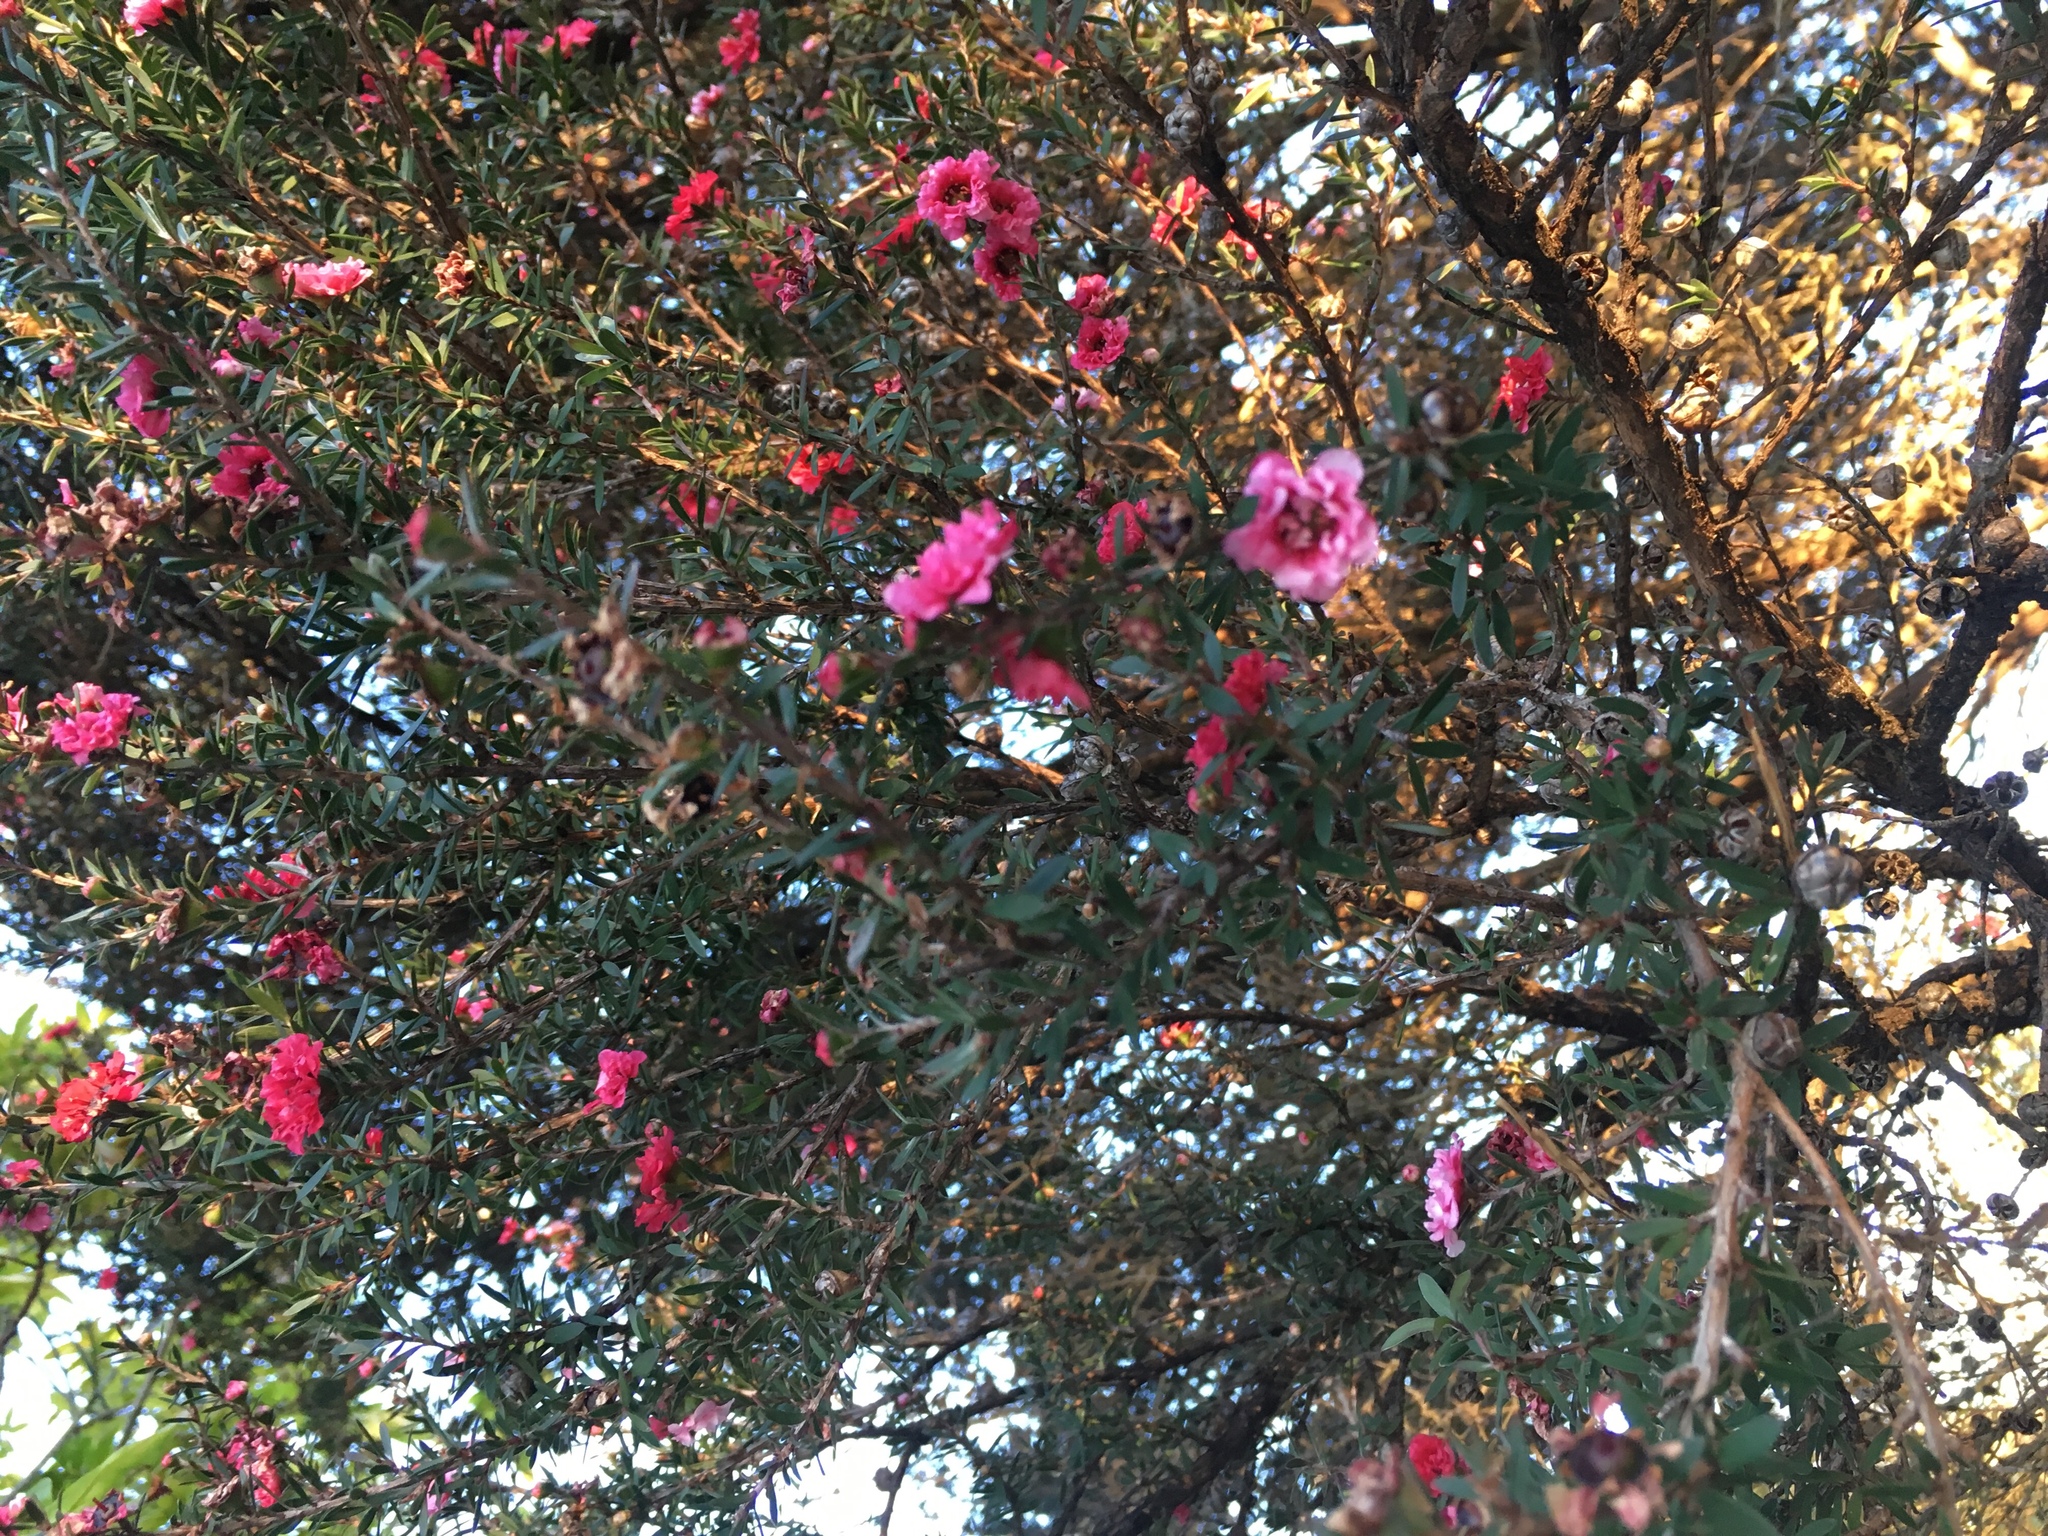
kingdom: Plantae
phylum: Tracheophyta
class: Magnoliopsida
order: Myrtales
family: Myrtaceae
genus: Leptospermum
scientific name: Leptospermum scoparium
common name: Broom tea-tree
